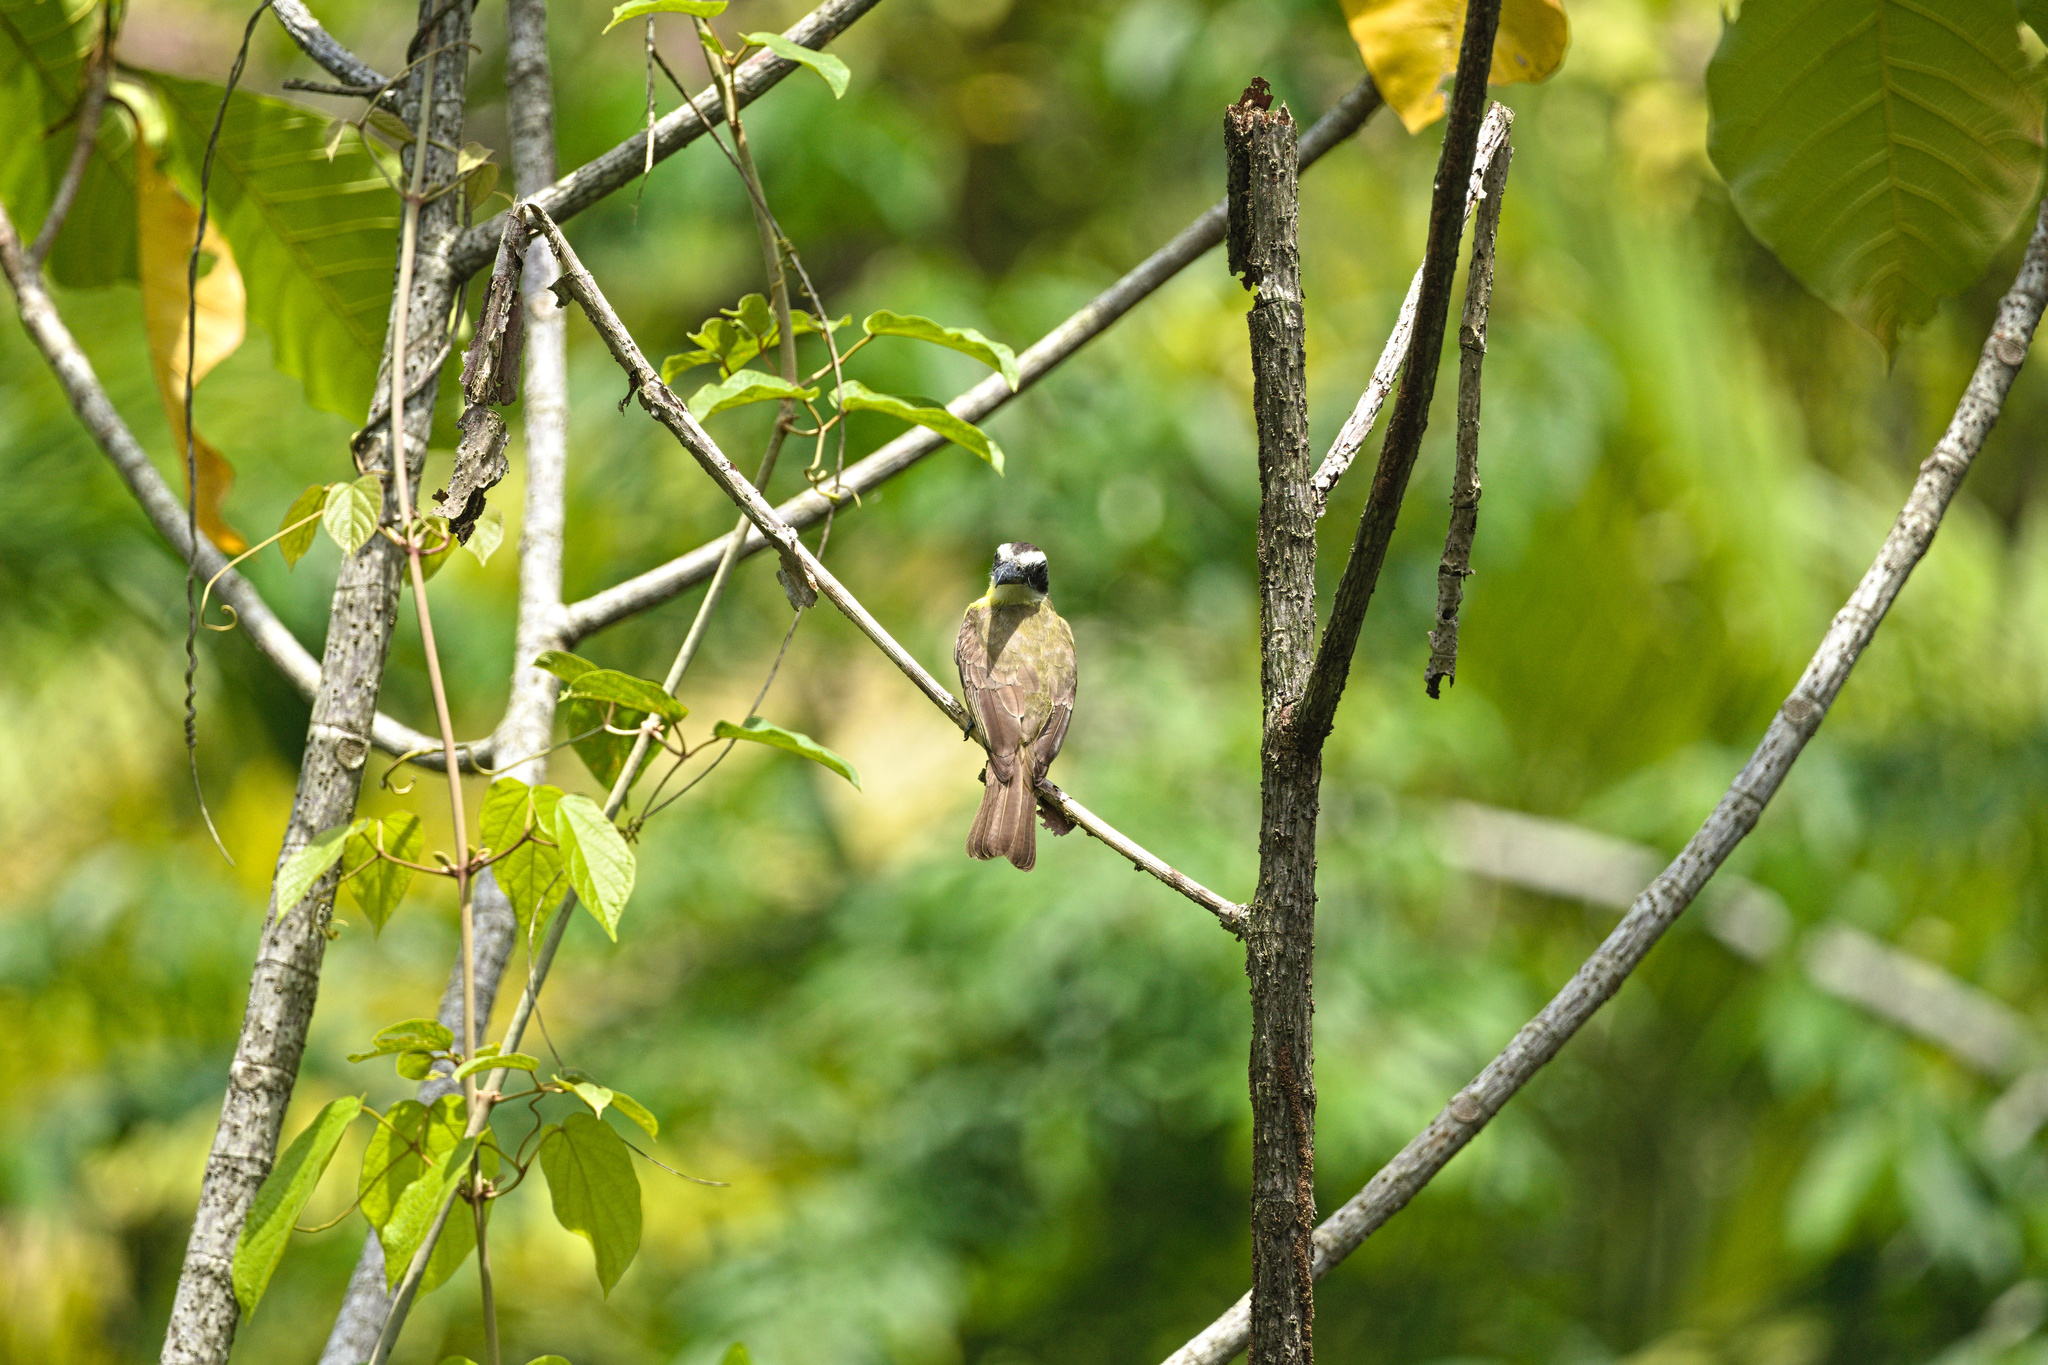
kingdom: Animalia
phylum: Chordata
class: Aves
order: Passeriformes
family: Tyrannidae
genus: Megarynchus
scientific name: Megarynchus pitangua
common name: Boat-billed flycatcher
